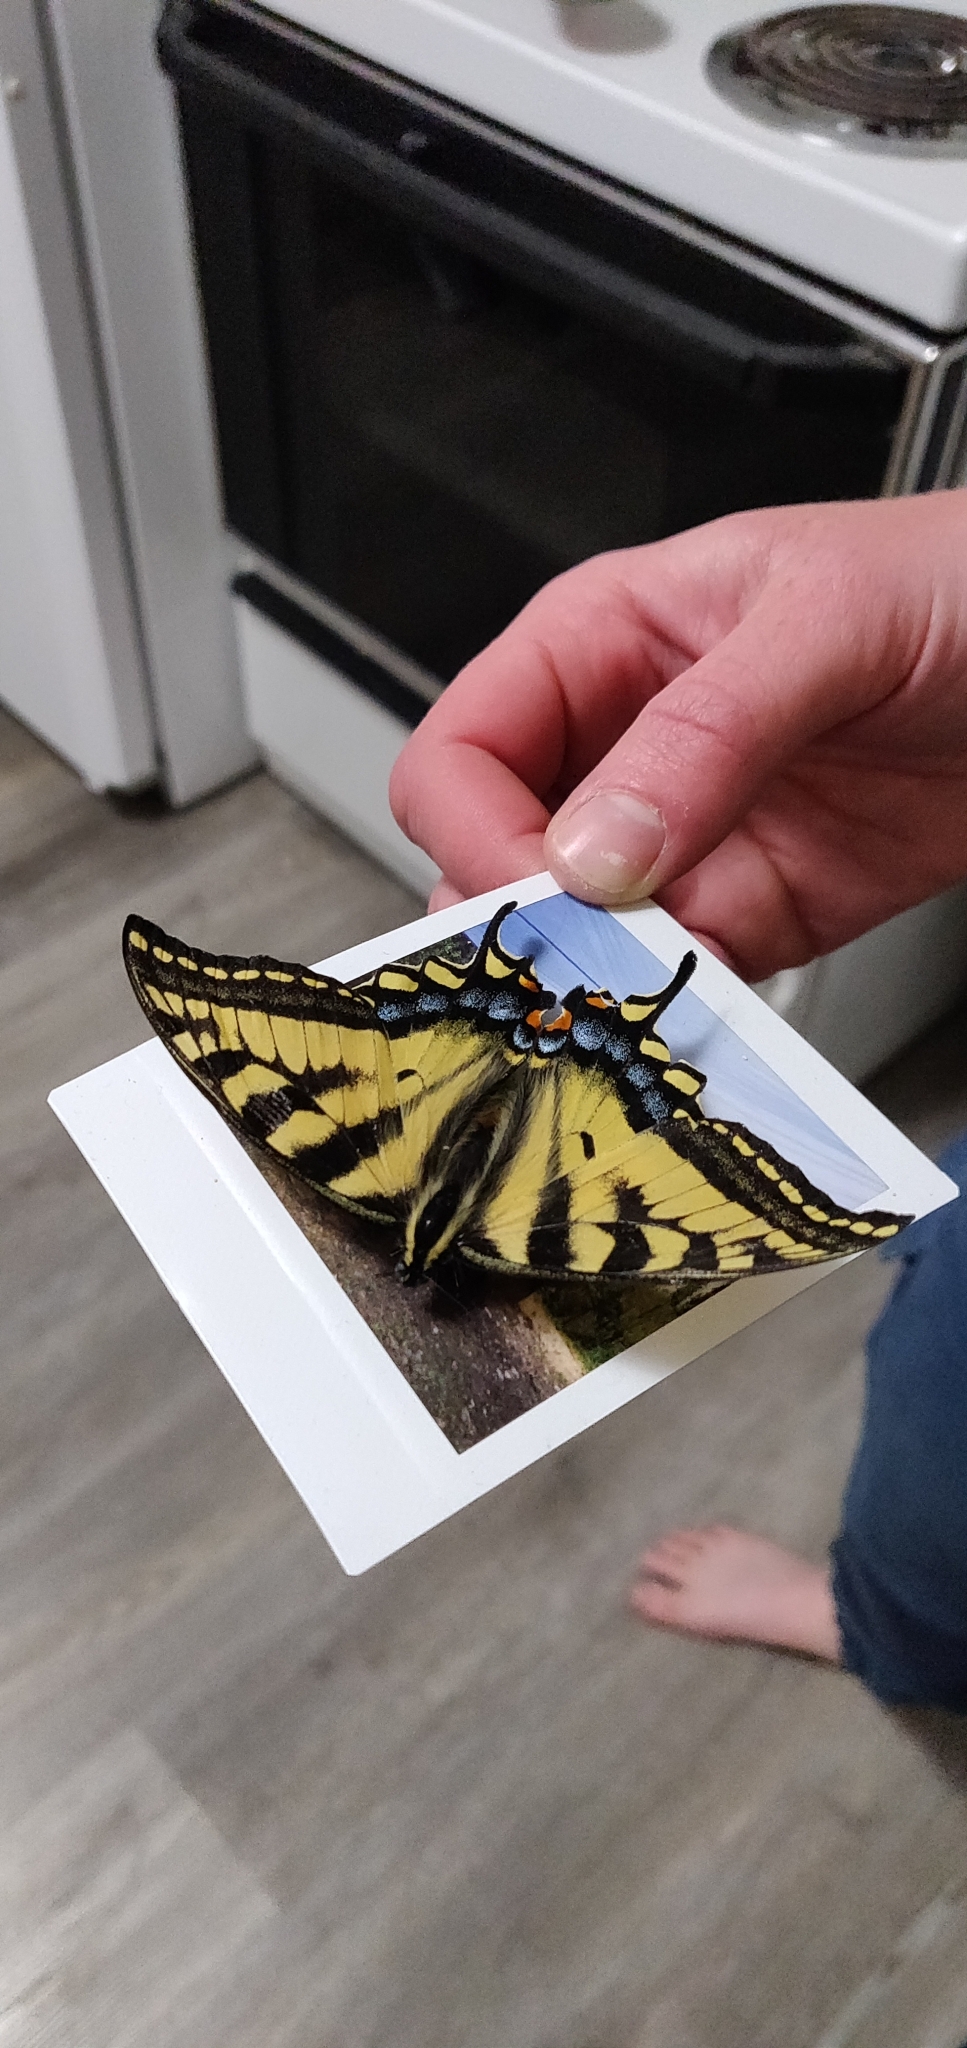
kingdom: Animalia
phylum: Arthropoda
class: Insecta
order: Lepidoptera
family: Papilionidae
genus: Papilio
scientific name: Papilio canadensis
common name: Canadian tiger swallowtail
